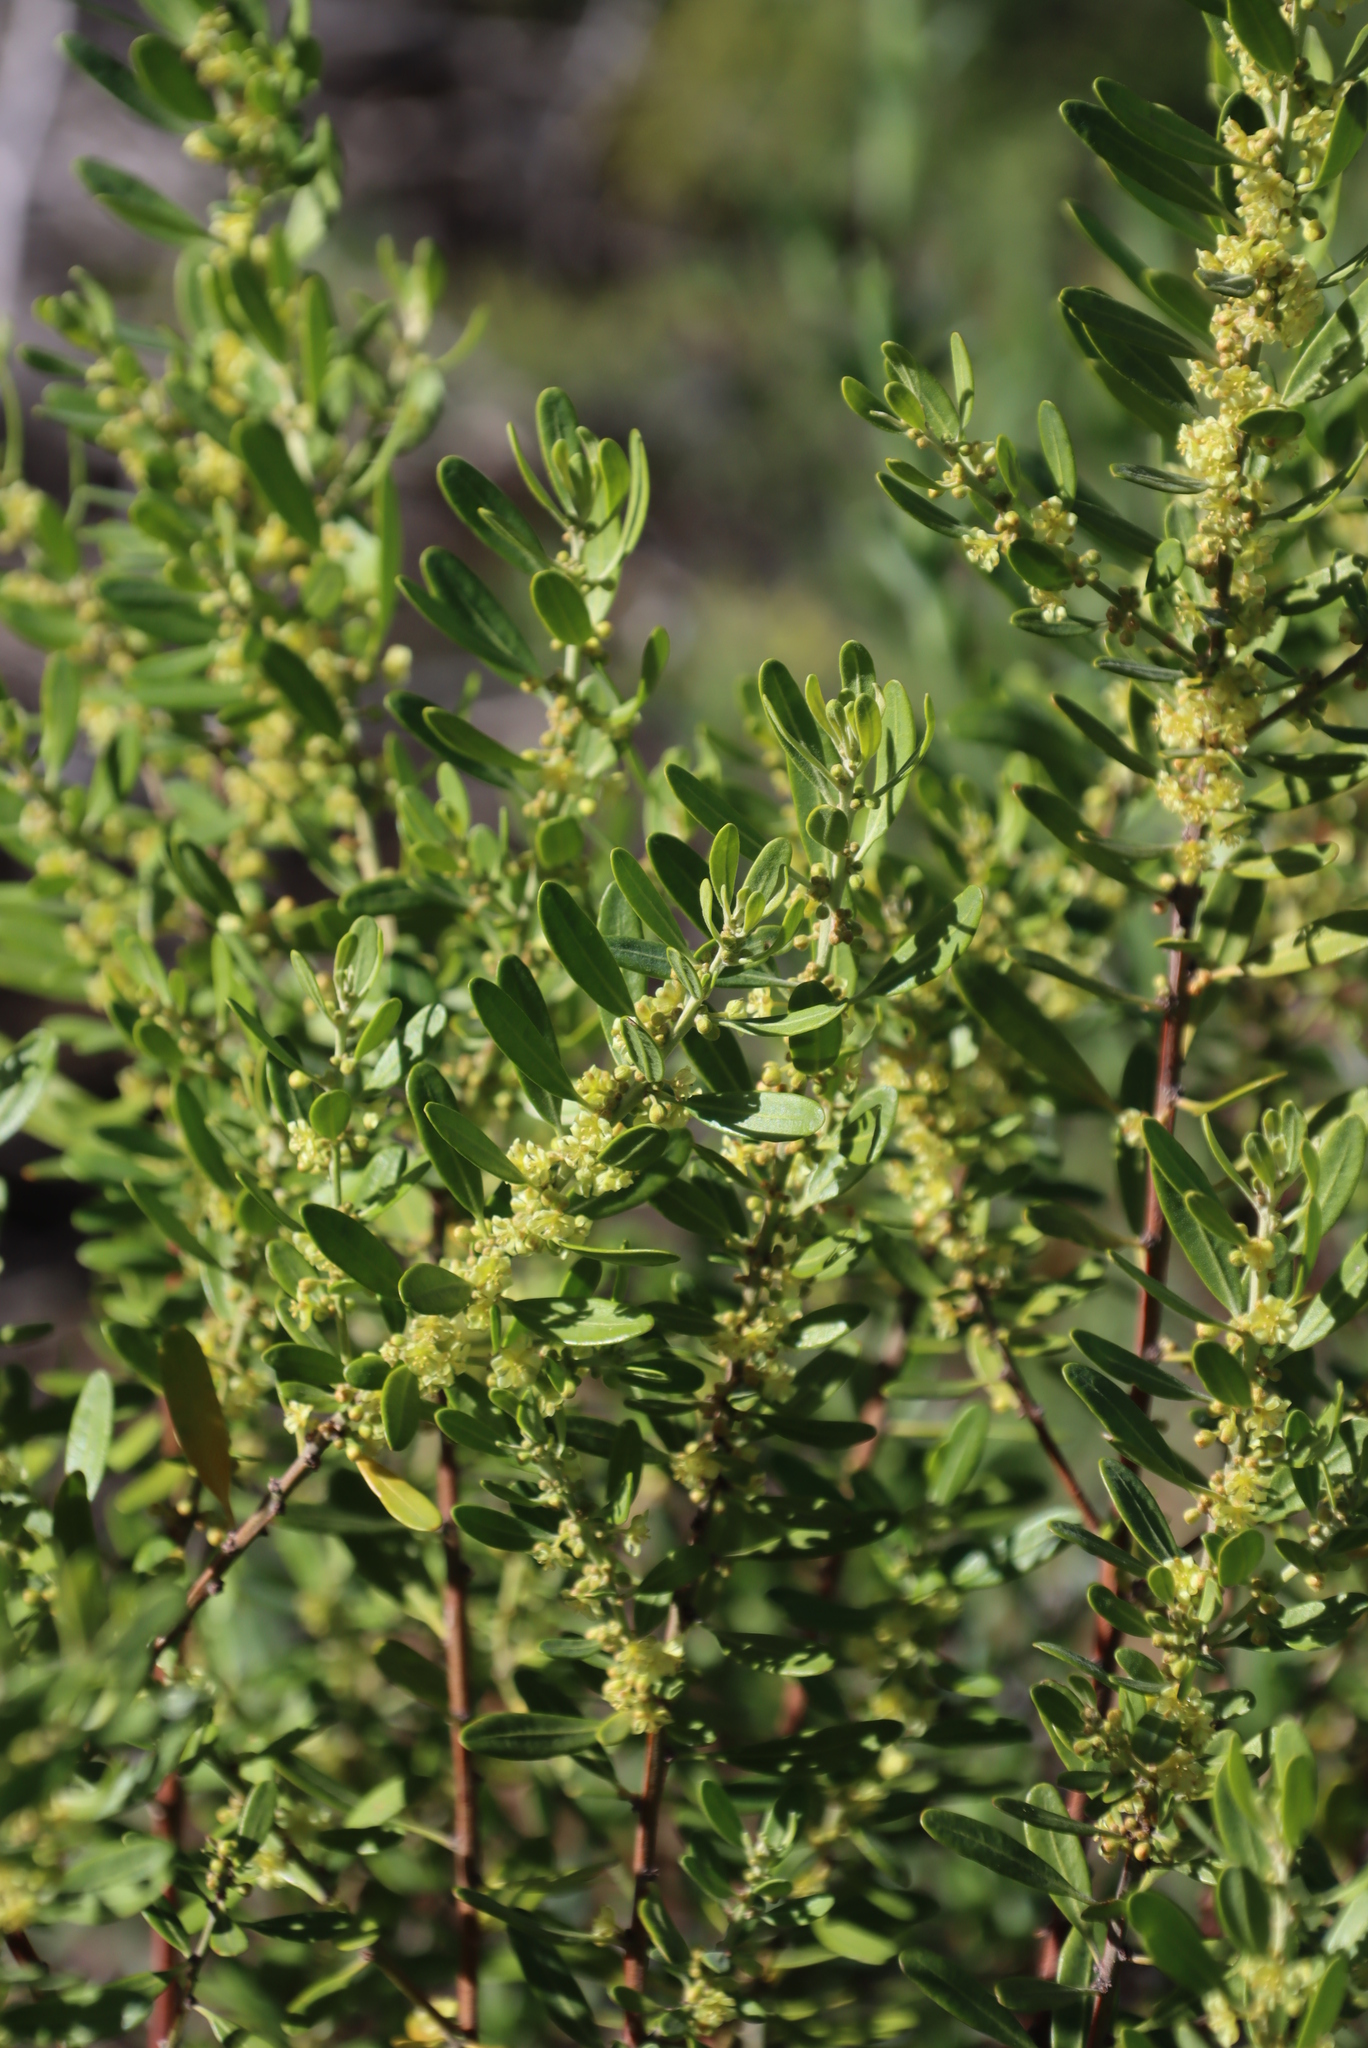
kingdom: Plantae
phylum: Tracheophyta
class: Magnoliopsida
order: Malpighiales
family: Peraceae
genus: Clutia
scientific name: Clutia daphnoides
